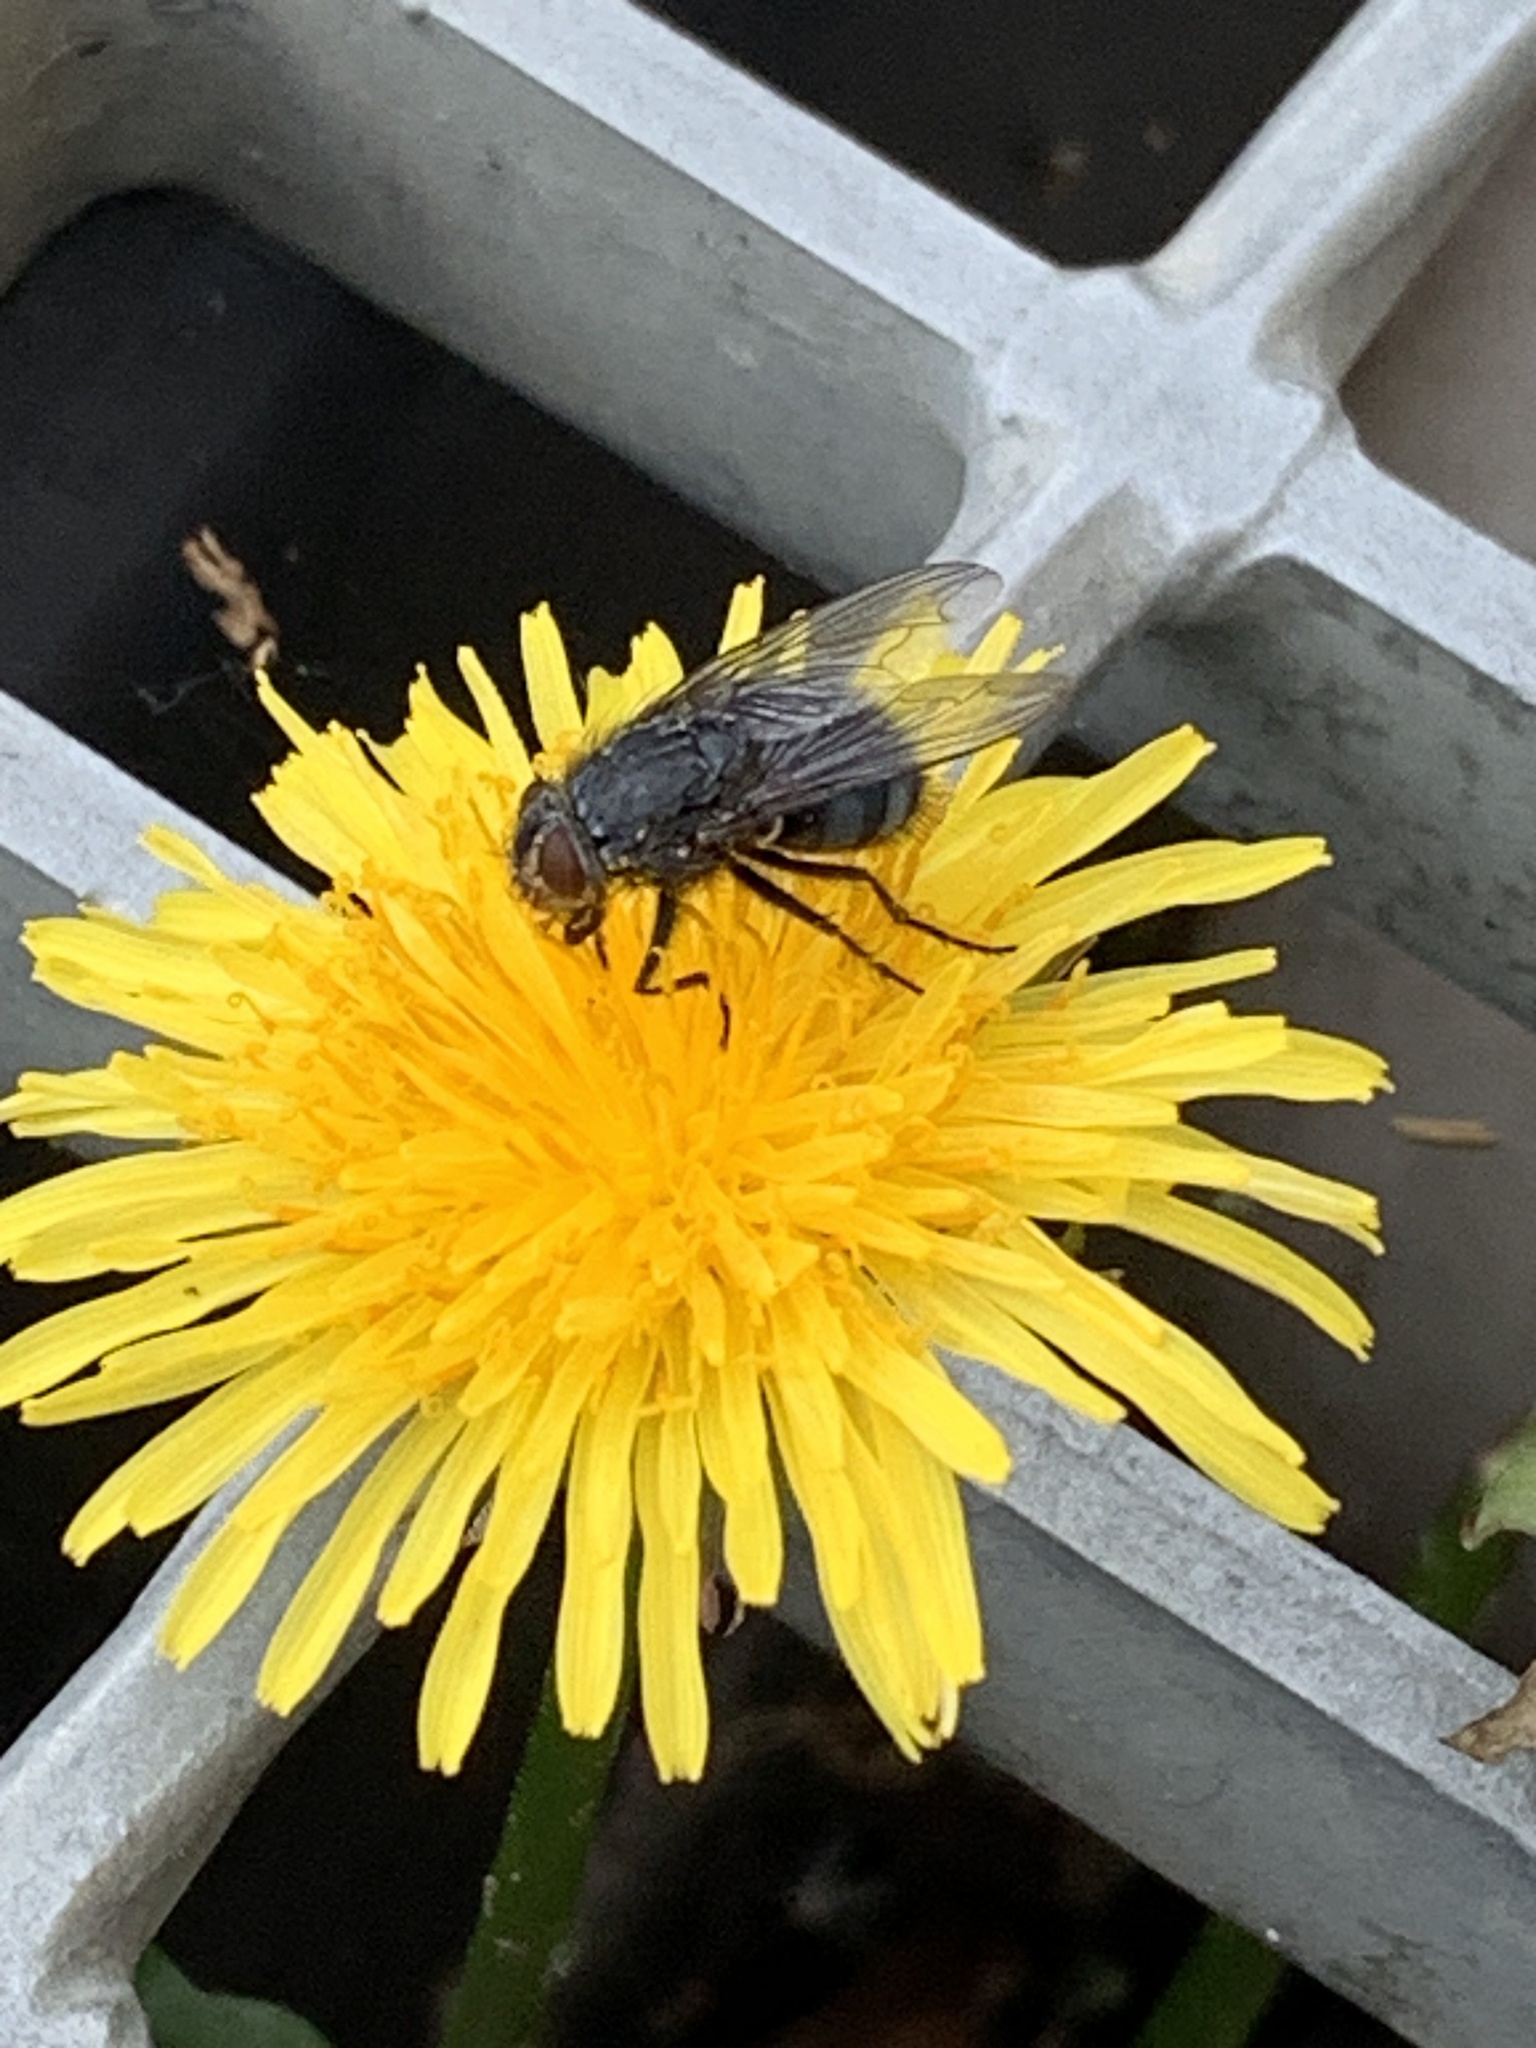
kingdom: Animalia
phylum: Arthropoda
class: Insecta
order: Diptera
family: Calliphoridae
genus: Calliphora
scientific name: Calliphora vicina
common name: Common blow flie
